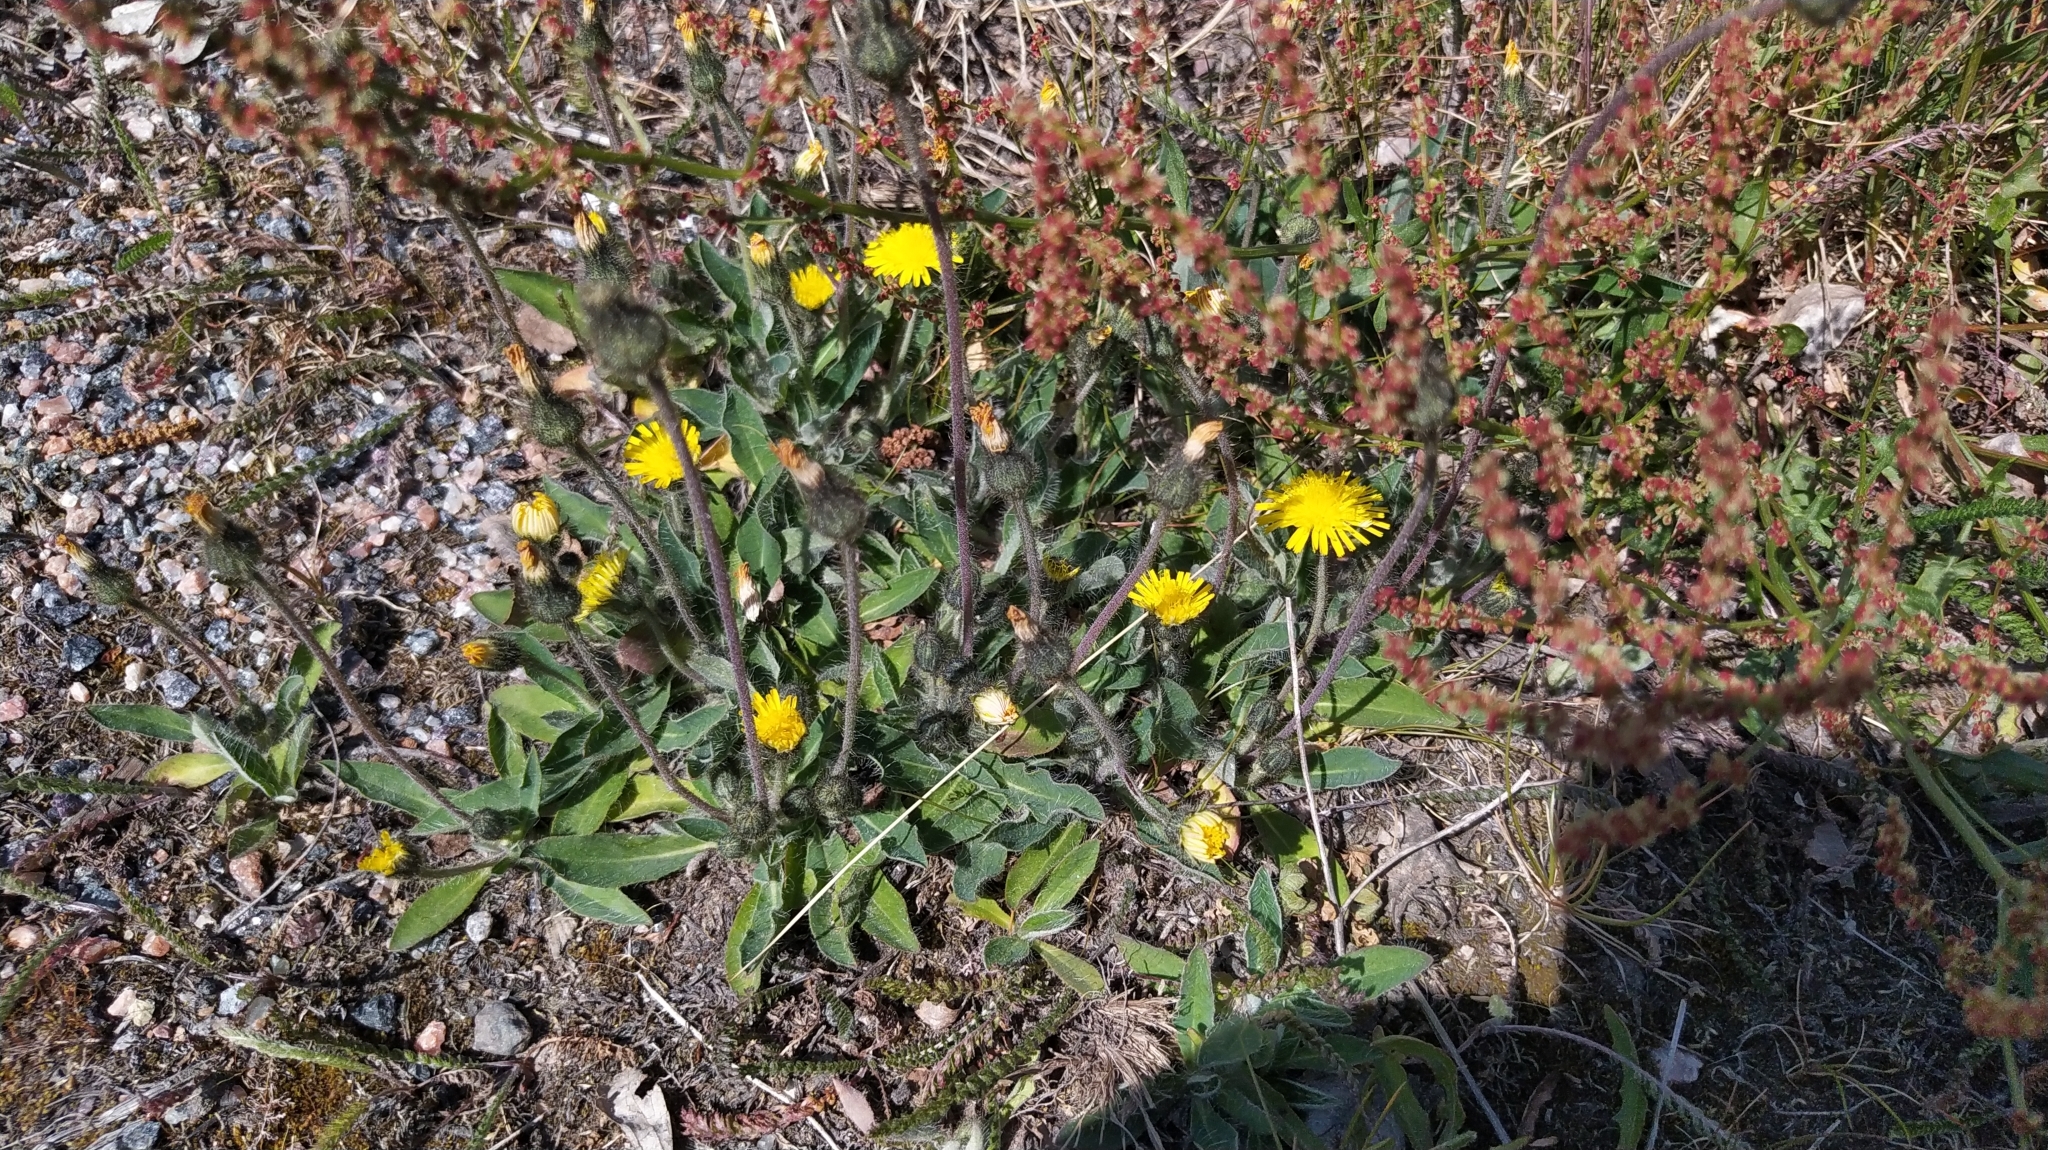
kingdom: Plantae
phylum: Tracheophyta
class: Magnoliopsida
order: Asterales
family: Asteraceae
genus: Pilosella
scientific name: Pilosella officinarum
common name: Mouse-ear hawkweed
